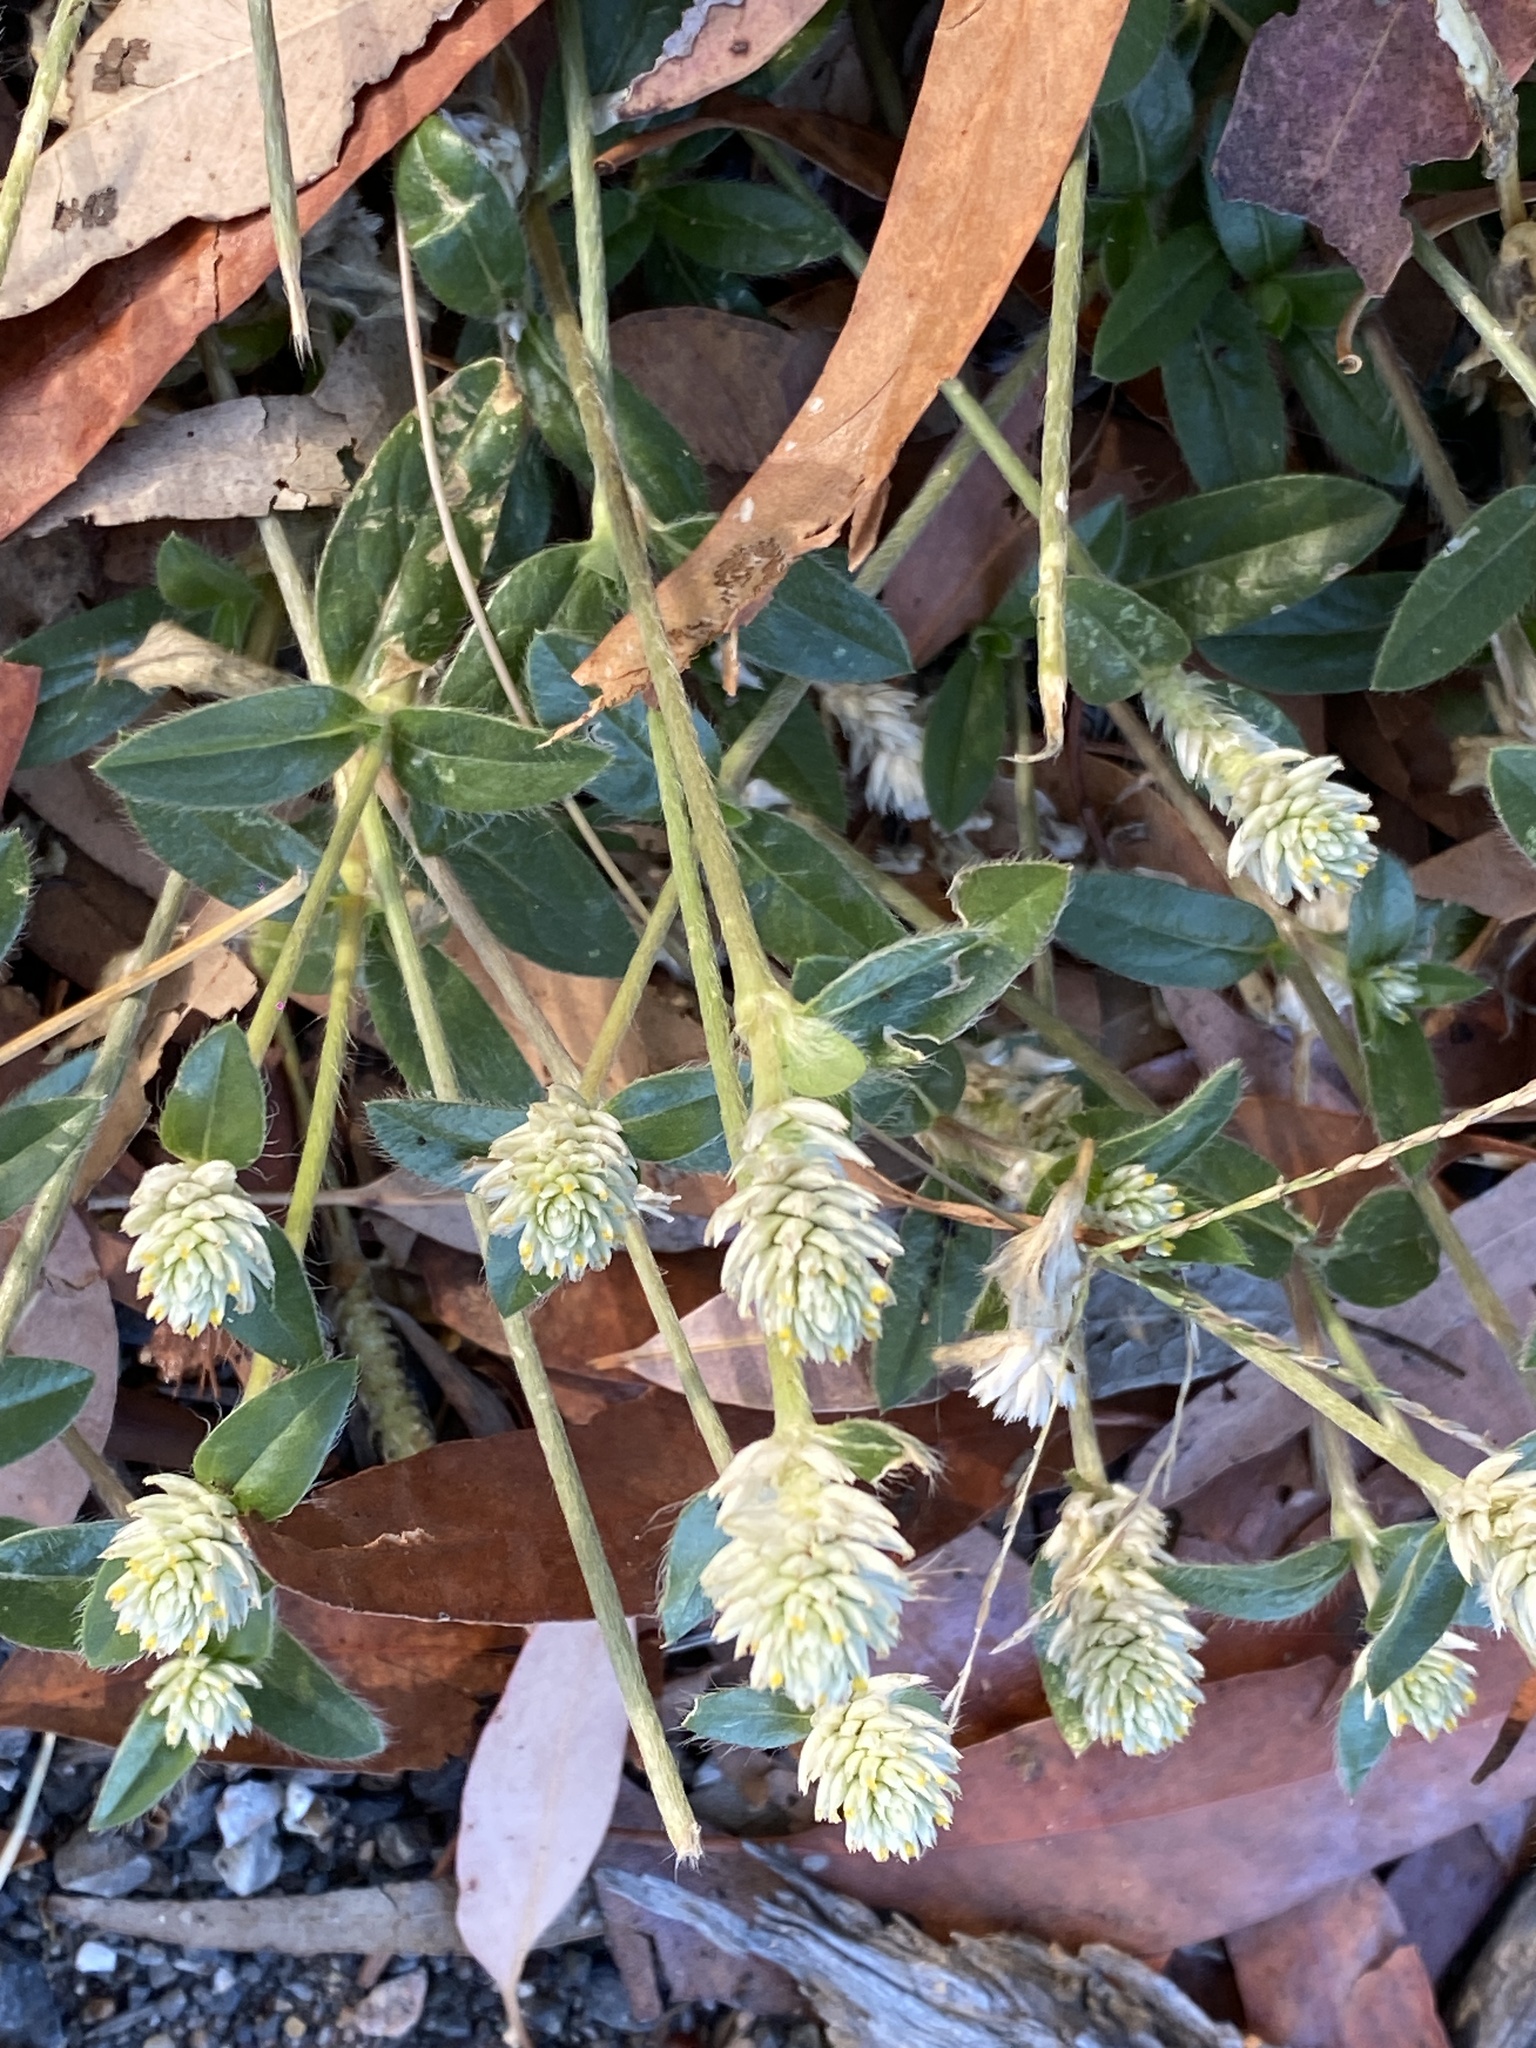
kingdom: Plantae
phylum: Tracheophyta
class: Magnoliopsida
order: Caryophyllales
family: Amaranthaceae
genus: Gomphrena
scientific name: Gomphrena celosioides
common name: Gomphrena-weed
